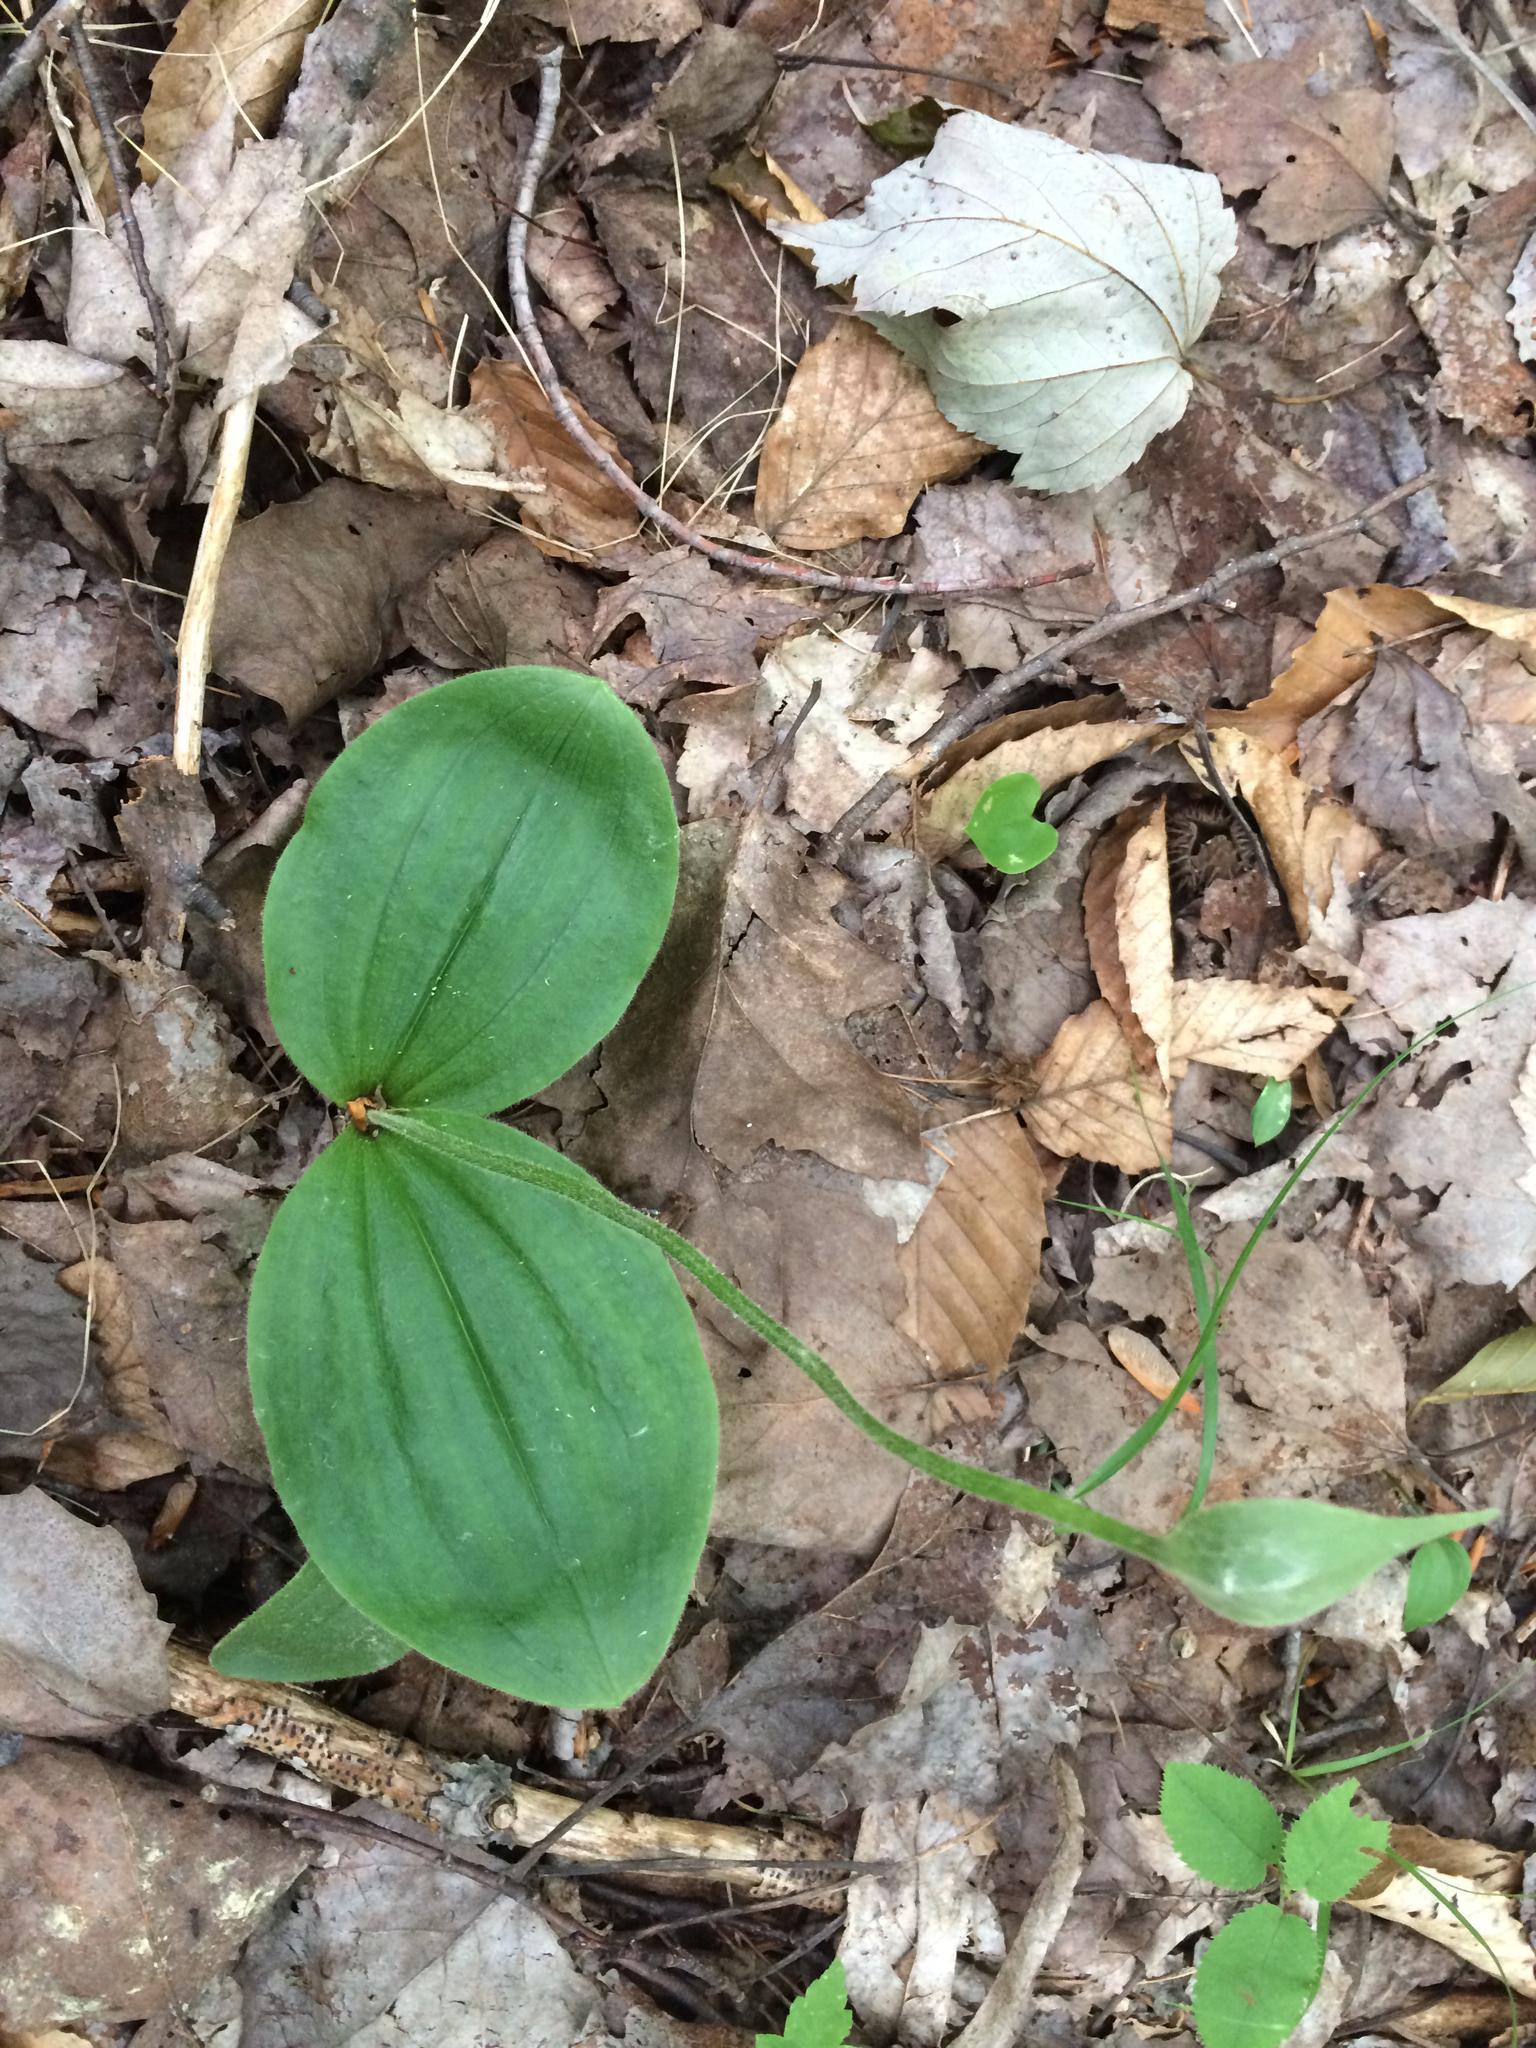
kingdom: Plantae
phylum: Tracheophyta
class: Liliopsida
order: Asparagales
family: Orchidaceae
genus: Cypripedium
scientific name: Cypripedium acaule
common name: Pink lady's-slipper
